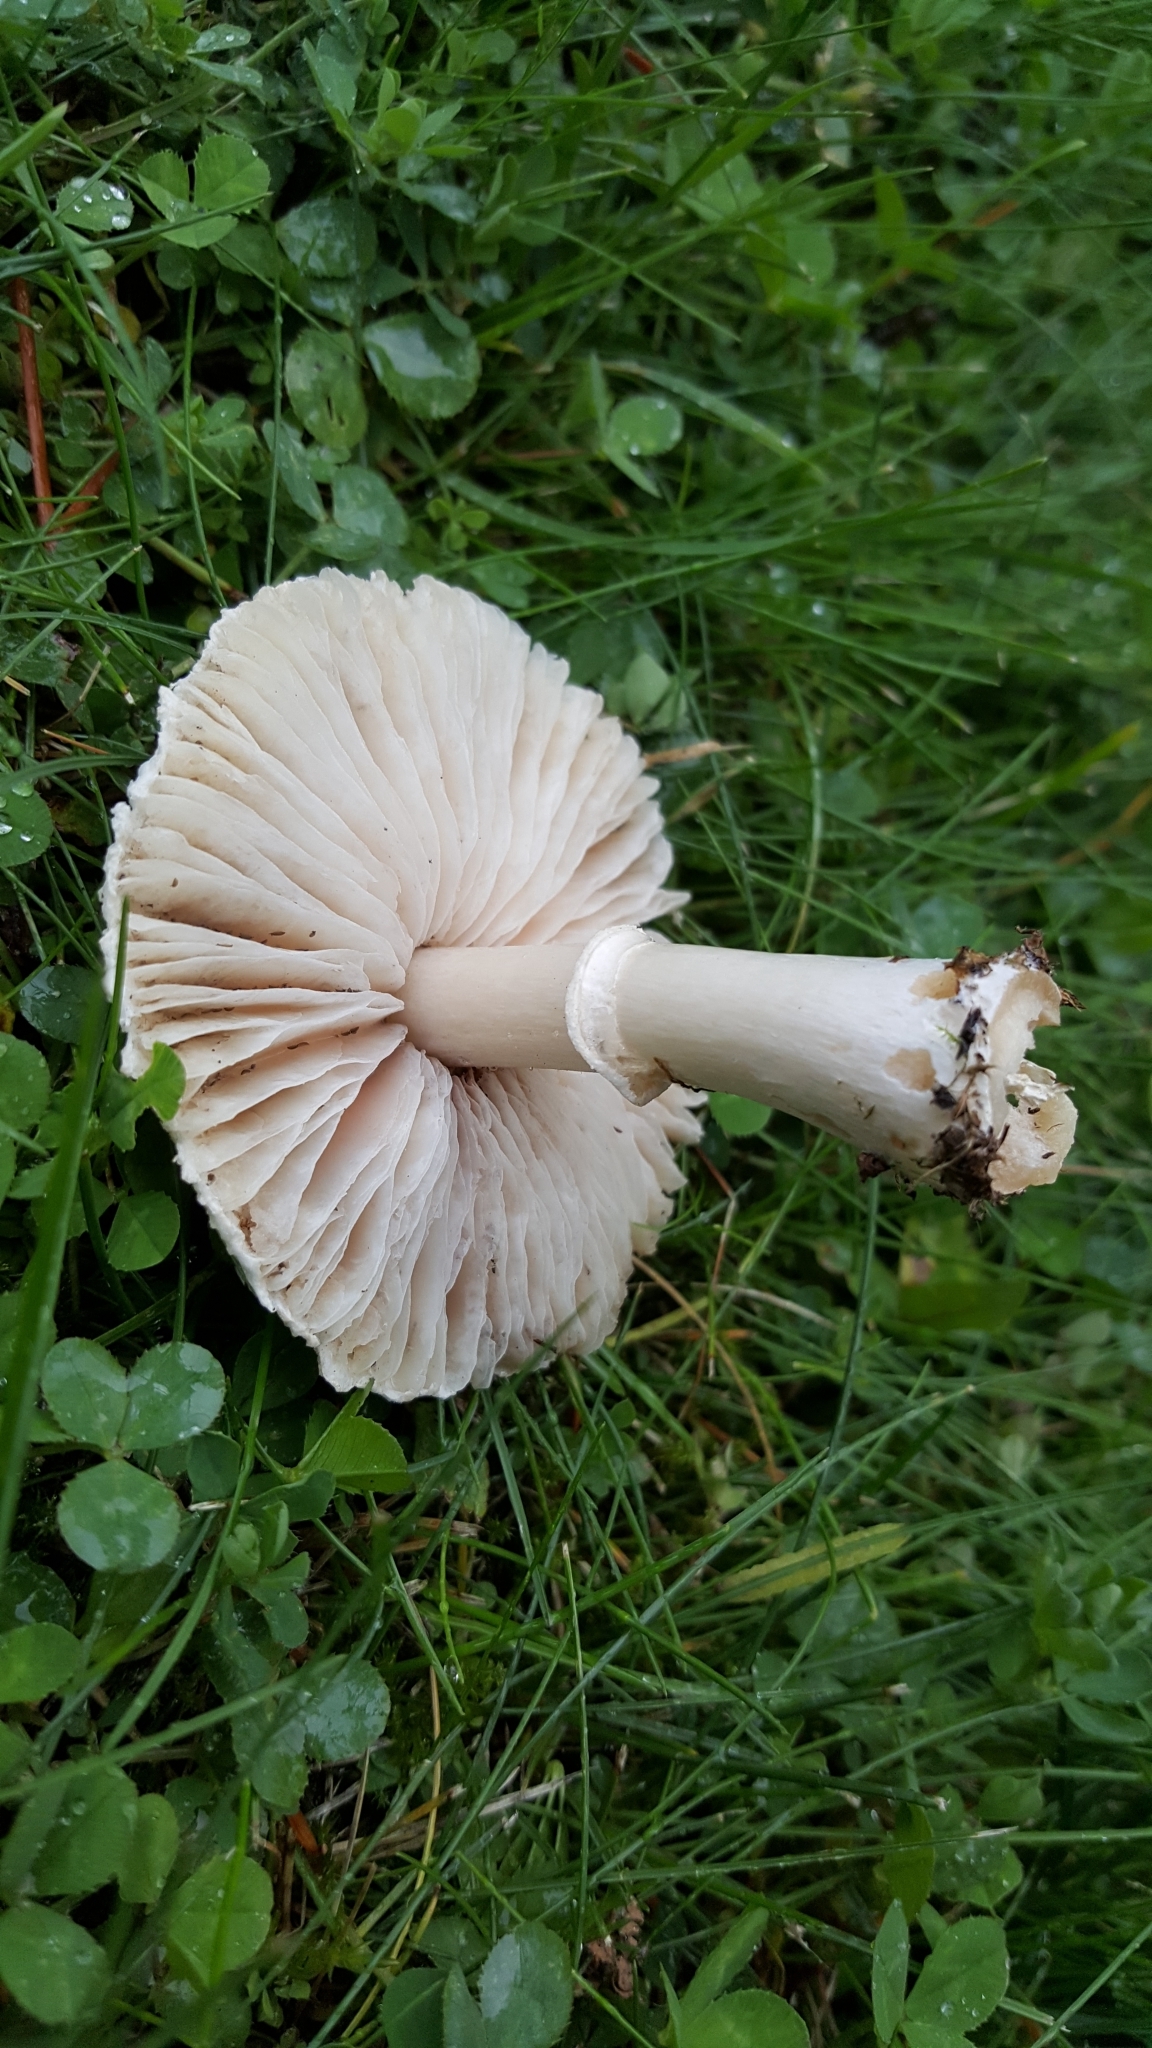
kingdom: Fungi
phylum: Basidiomycota
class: Agaricomycetes
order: Agaricales
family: Agaricaceae
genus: Leucoagaricus
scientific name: Leucoagaricus leucothites
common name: White dapperling
